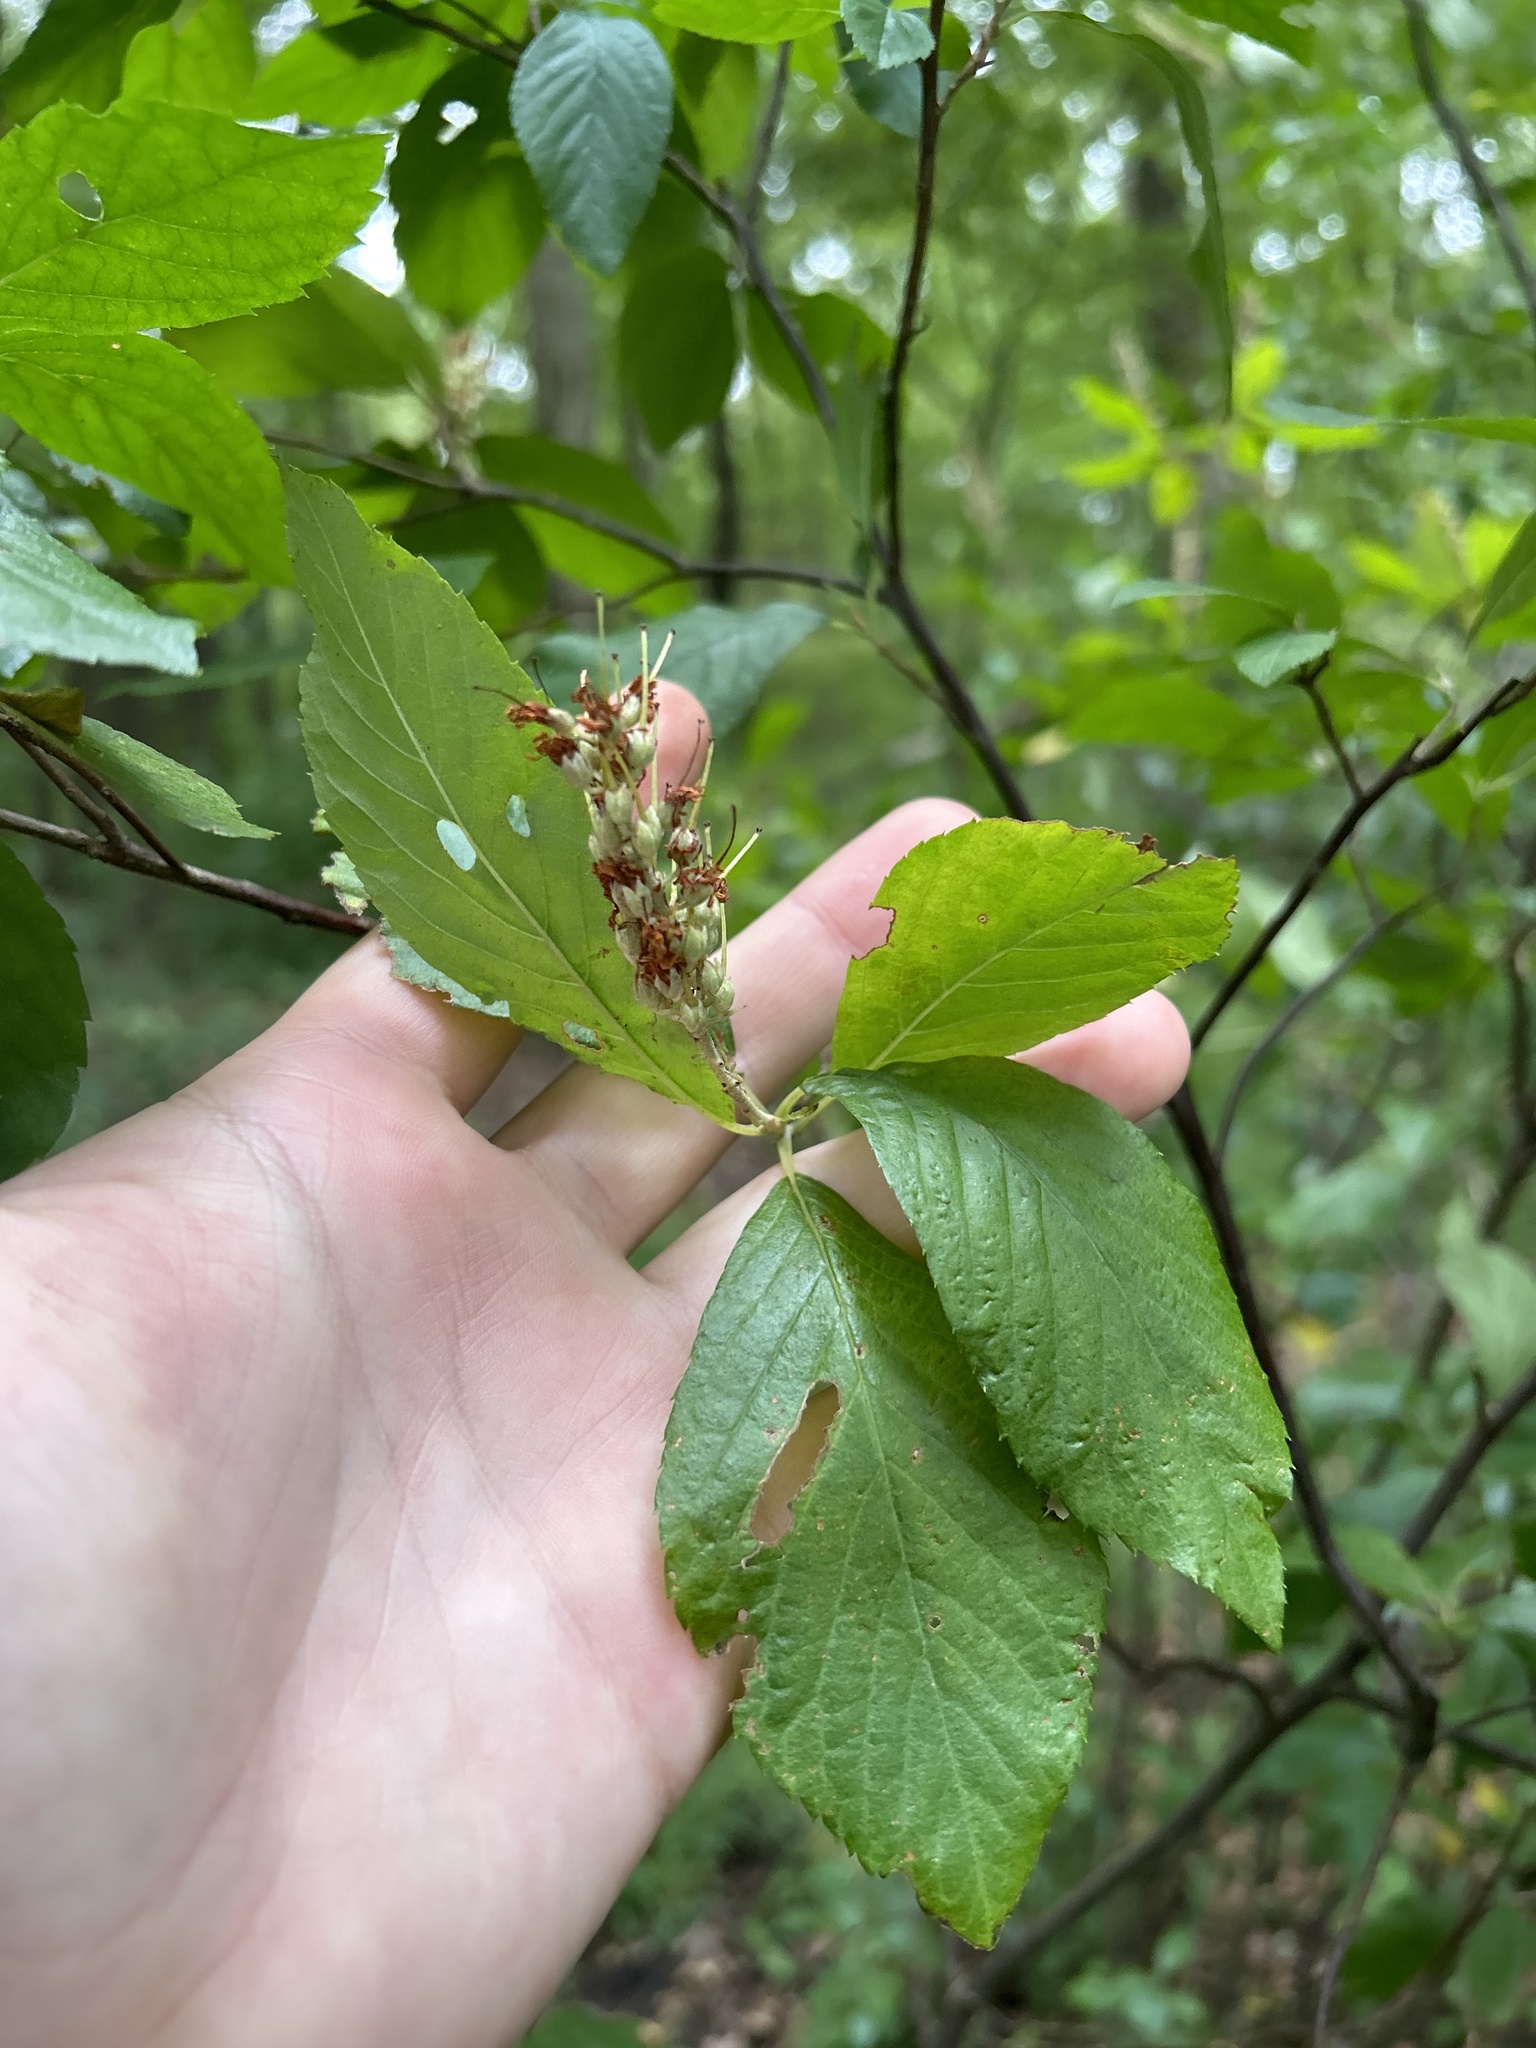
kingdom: Plantae
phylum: Tracheophyta
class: Magnoliopsida
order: Ericales
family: Clethraceae
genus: Clethra
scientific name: Clethra alnifolia
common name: Sweet pepperbush
